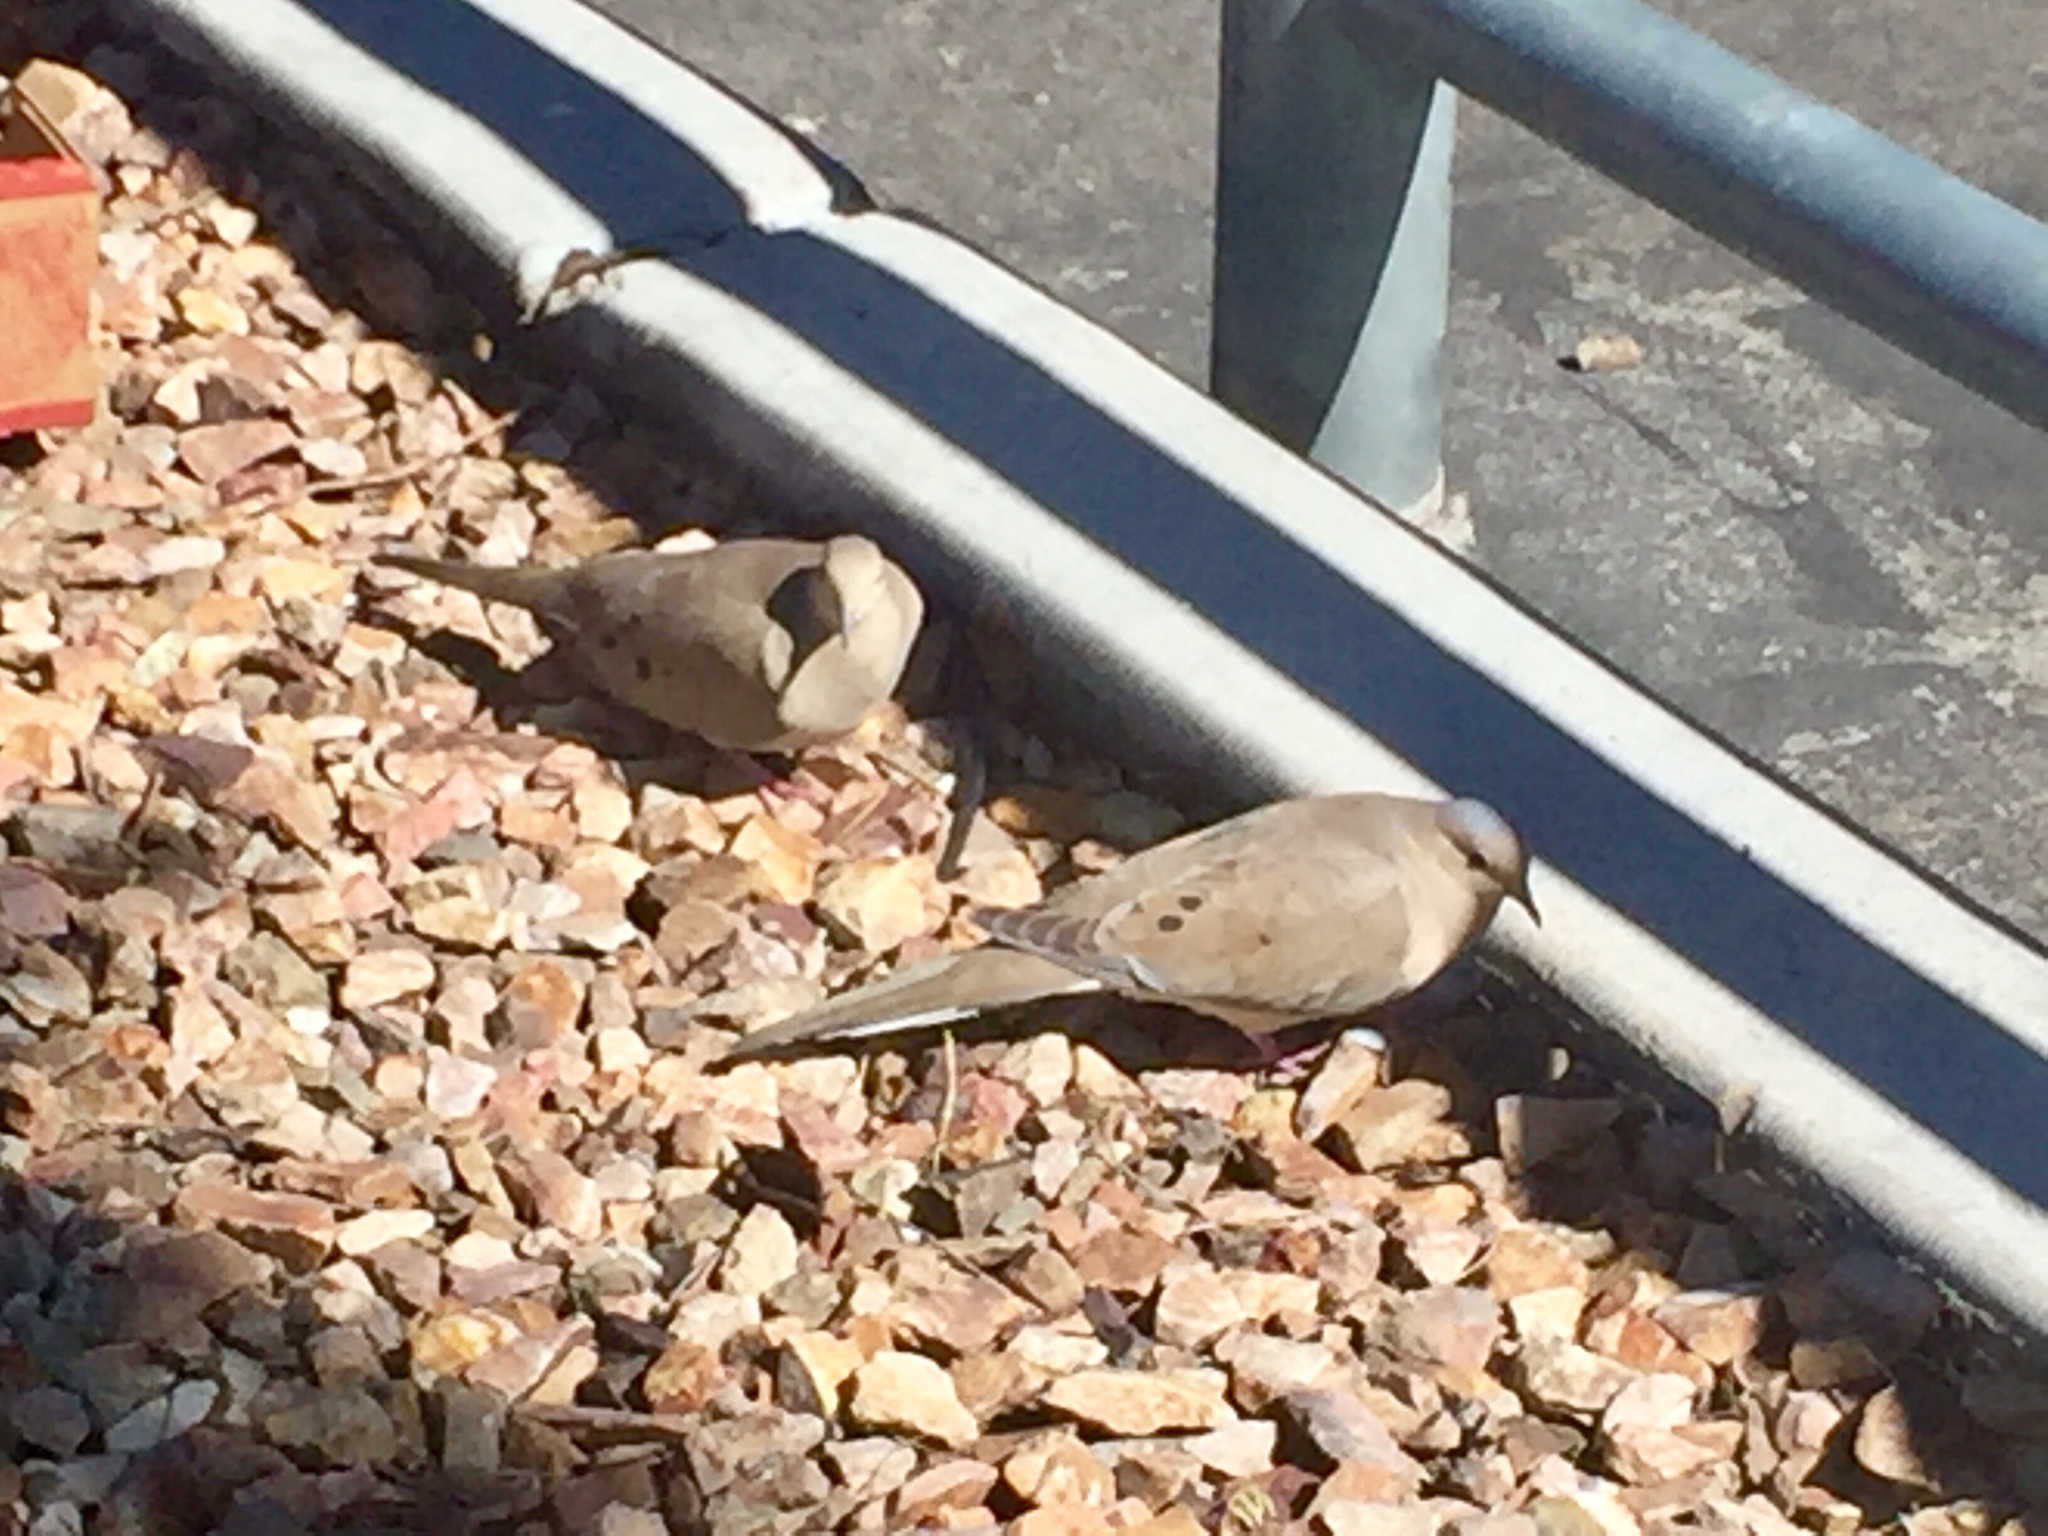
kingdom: Animalia
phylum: Chordata
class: Aves
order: Columbiformes
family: Columbidae
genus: Zenaida
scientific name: Zenaida macroura
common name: Mourning dove
